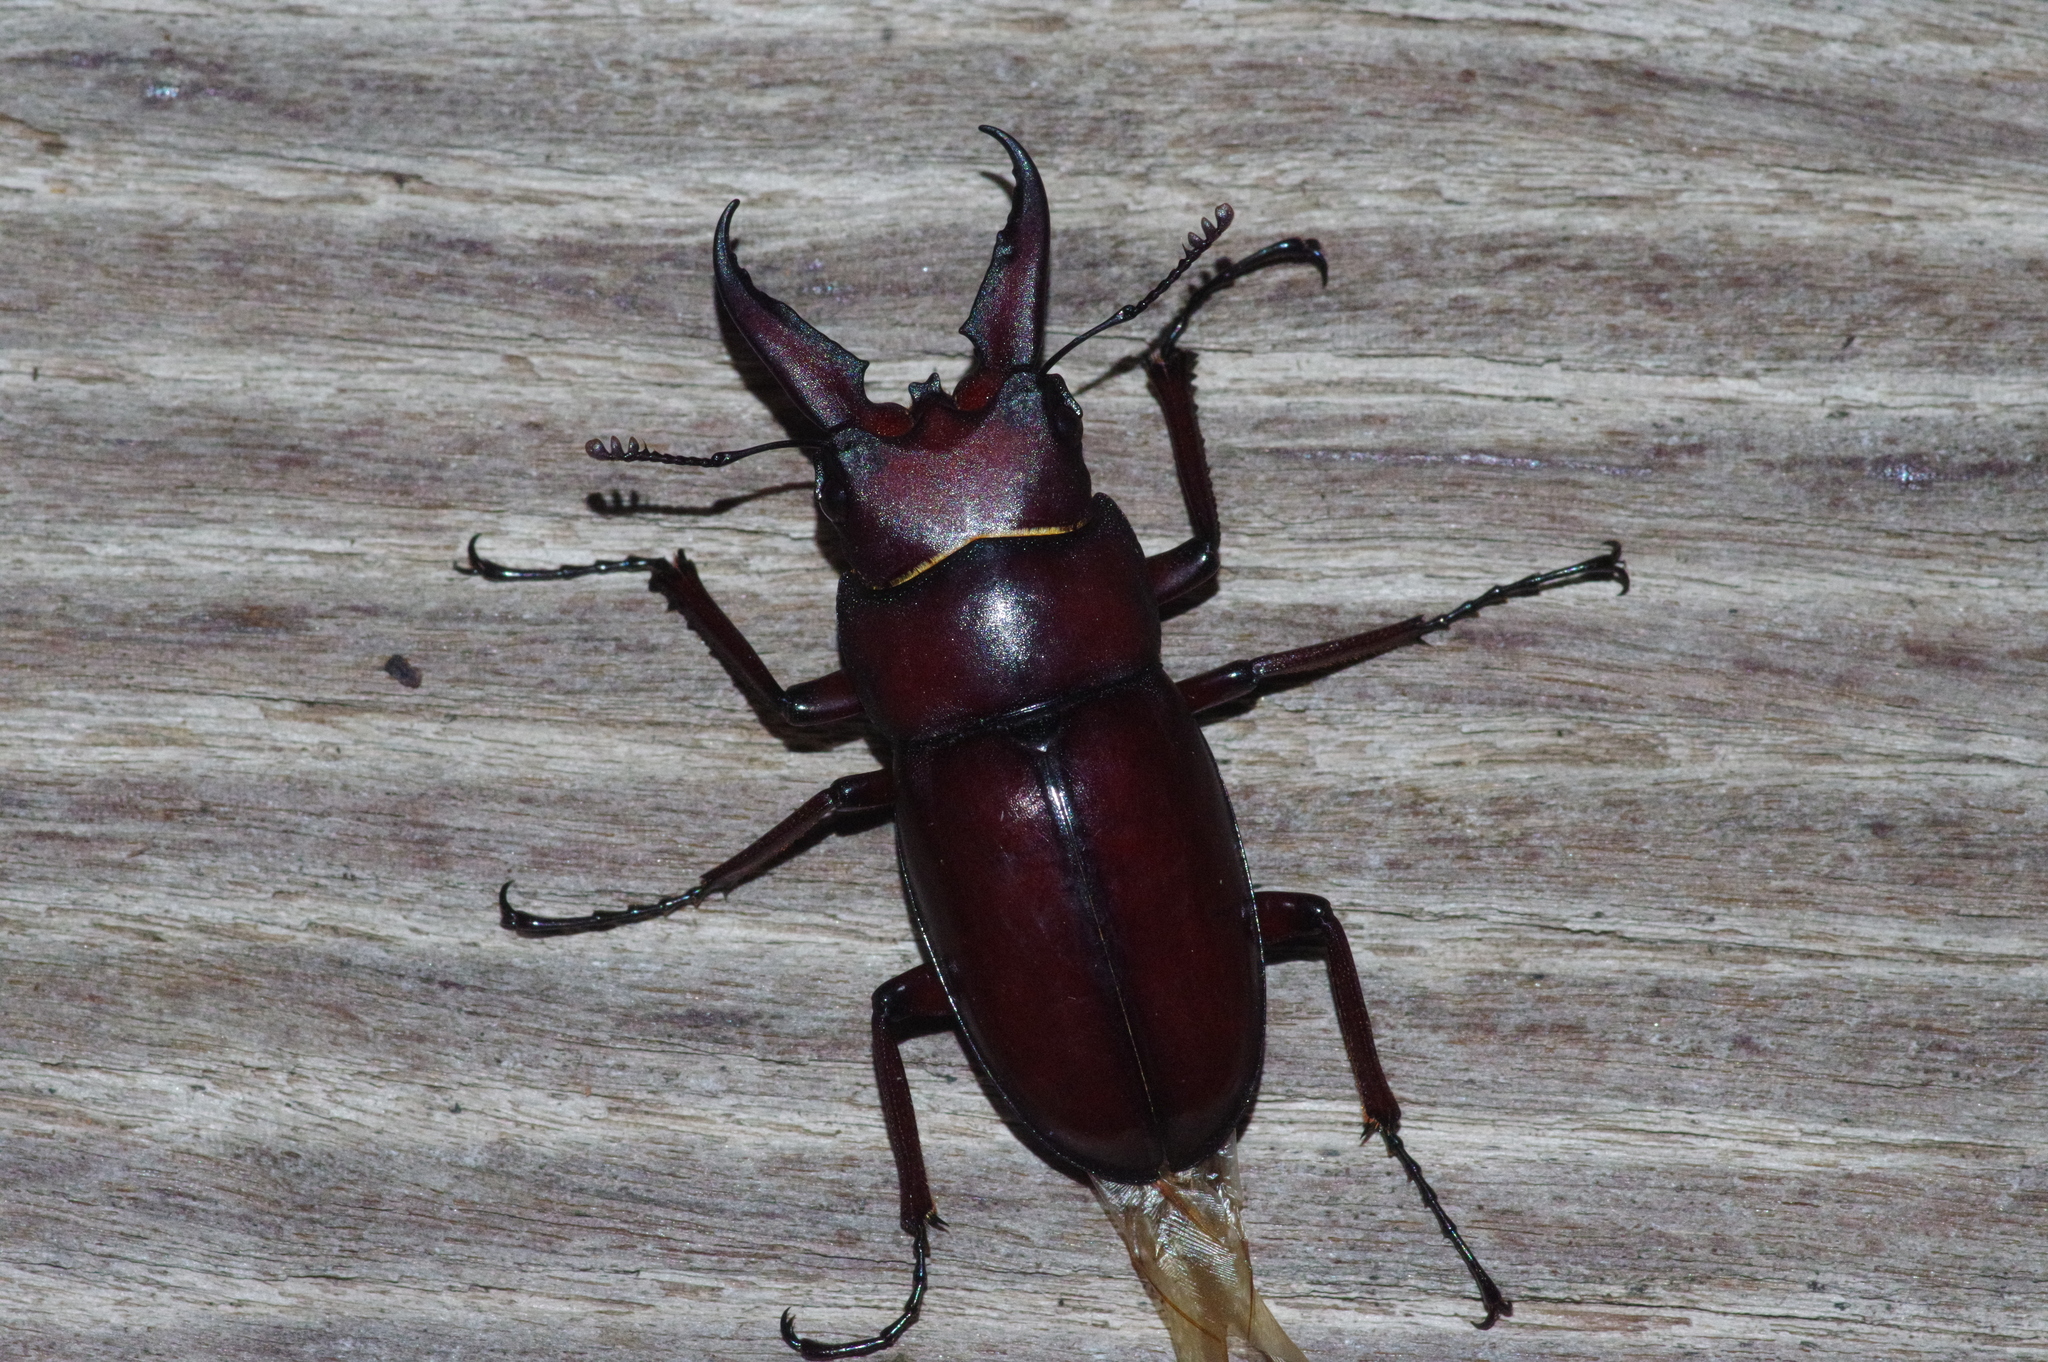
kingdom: Animalia
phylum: Arthropoda
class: Insecta
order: Coleoptera
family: Lucanidae
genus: Prosopocoilus
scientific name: Prosopocoilus dissimilis
